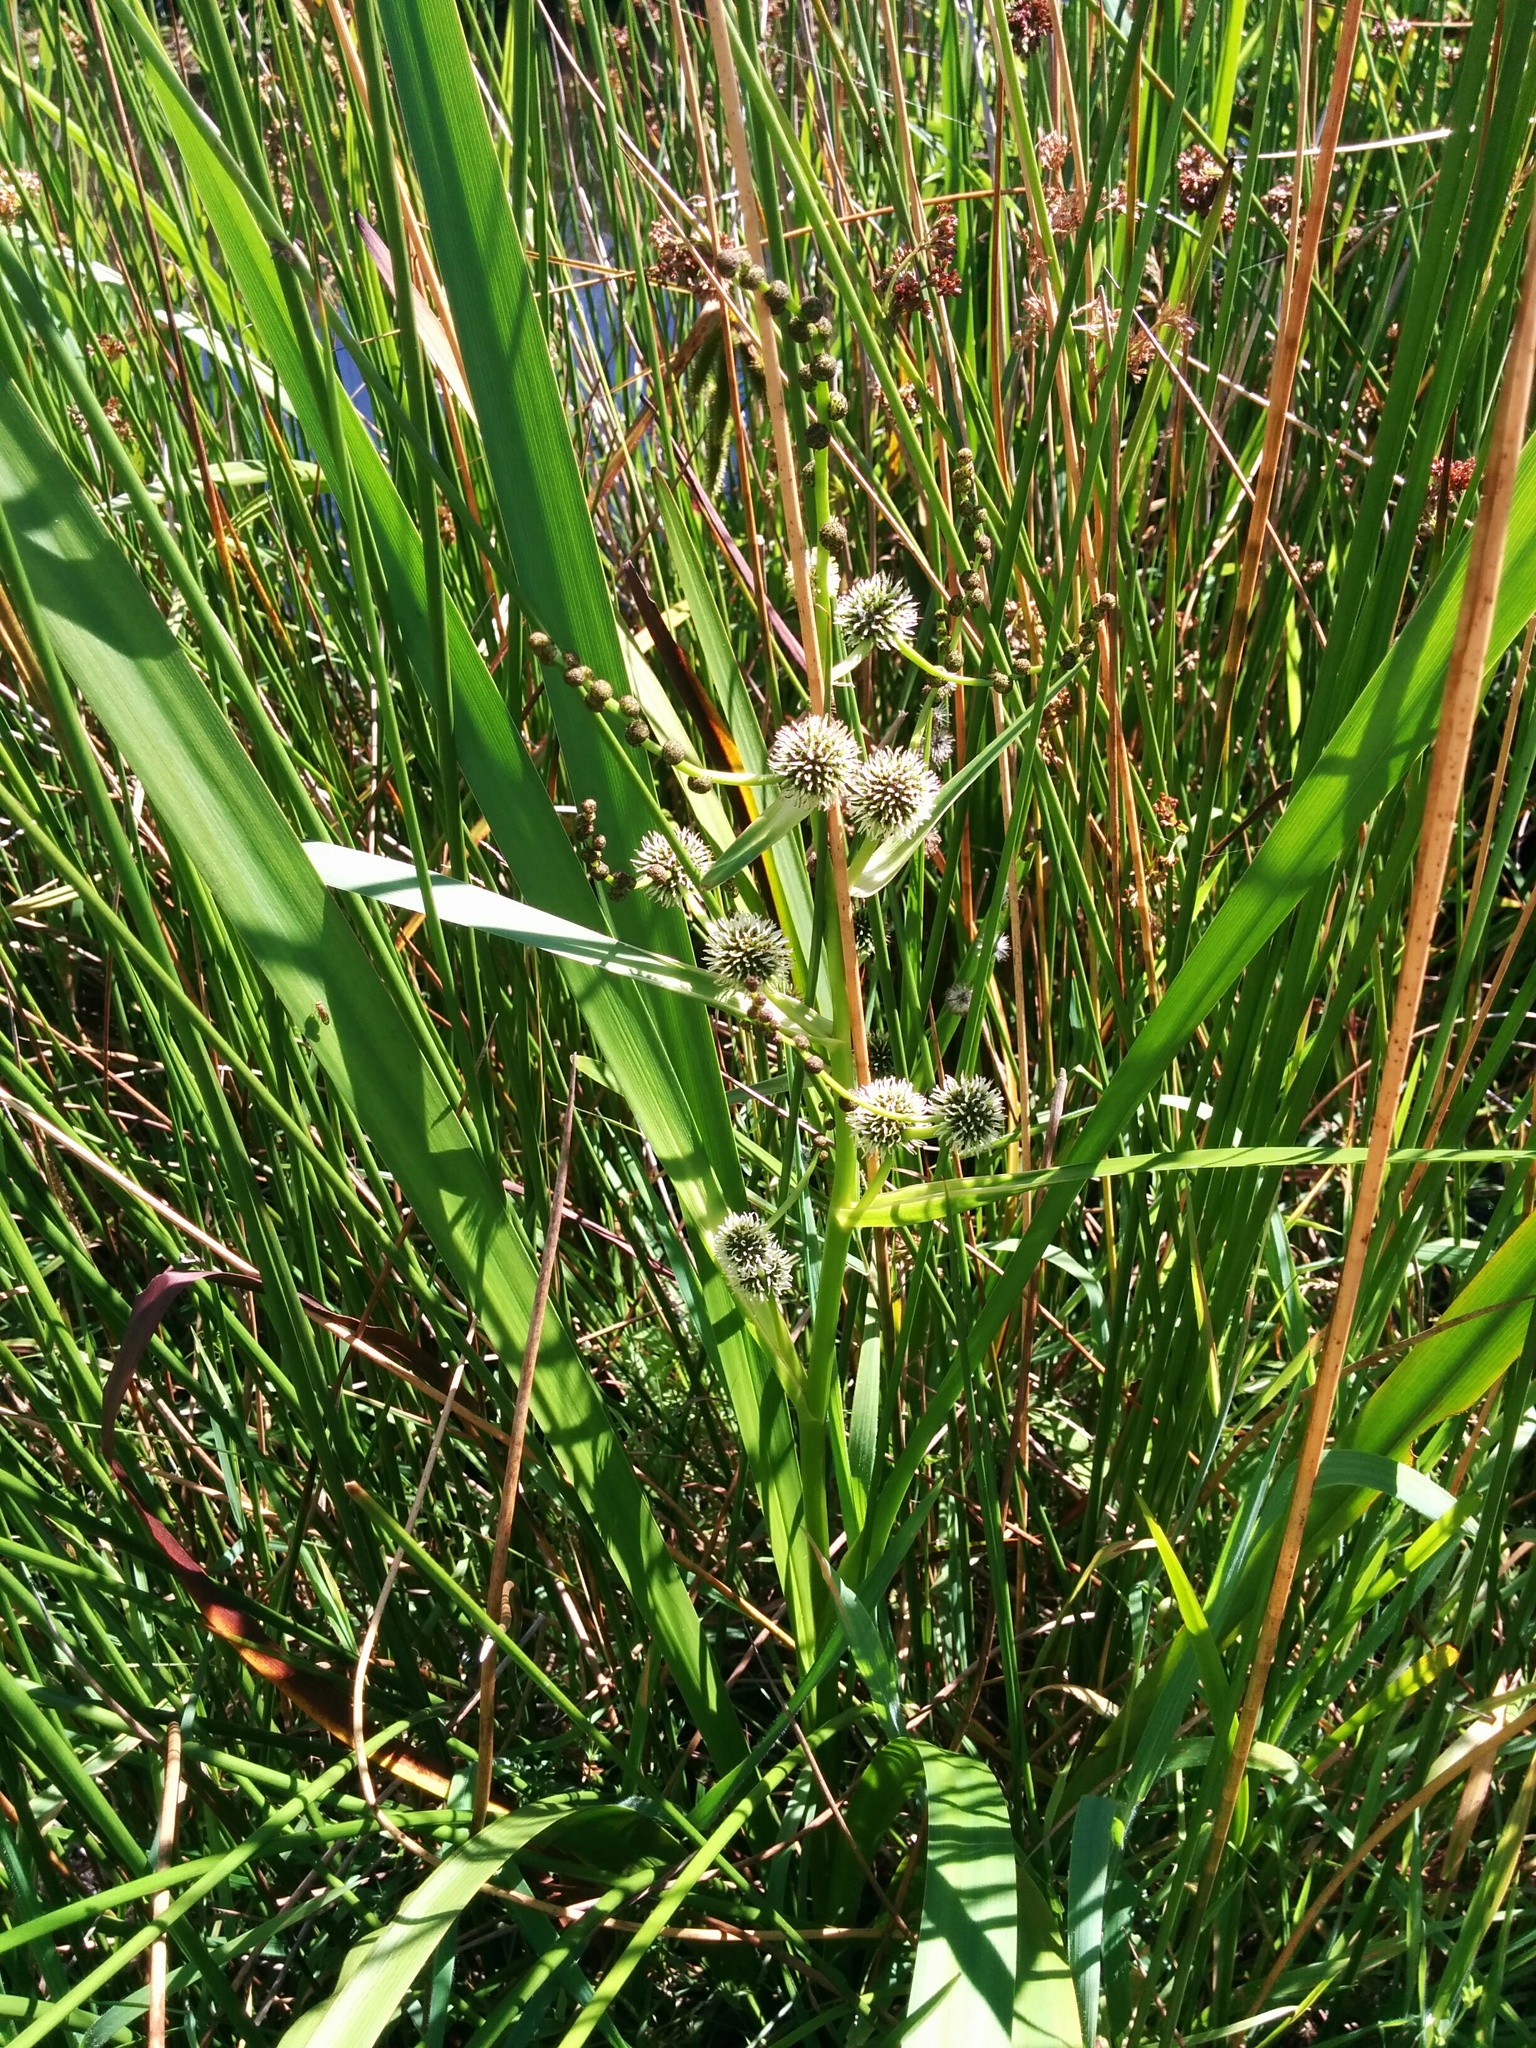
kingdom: Plantae
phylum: Tracheophyta
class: Liliopsida
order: Poales
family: Typhaceae
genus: Sparganium
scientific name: Sparganium erectum
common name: Branched bur-reed
